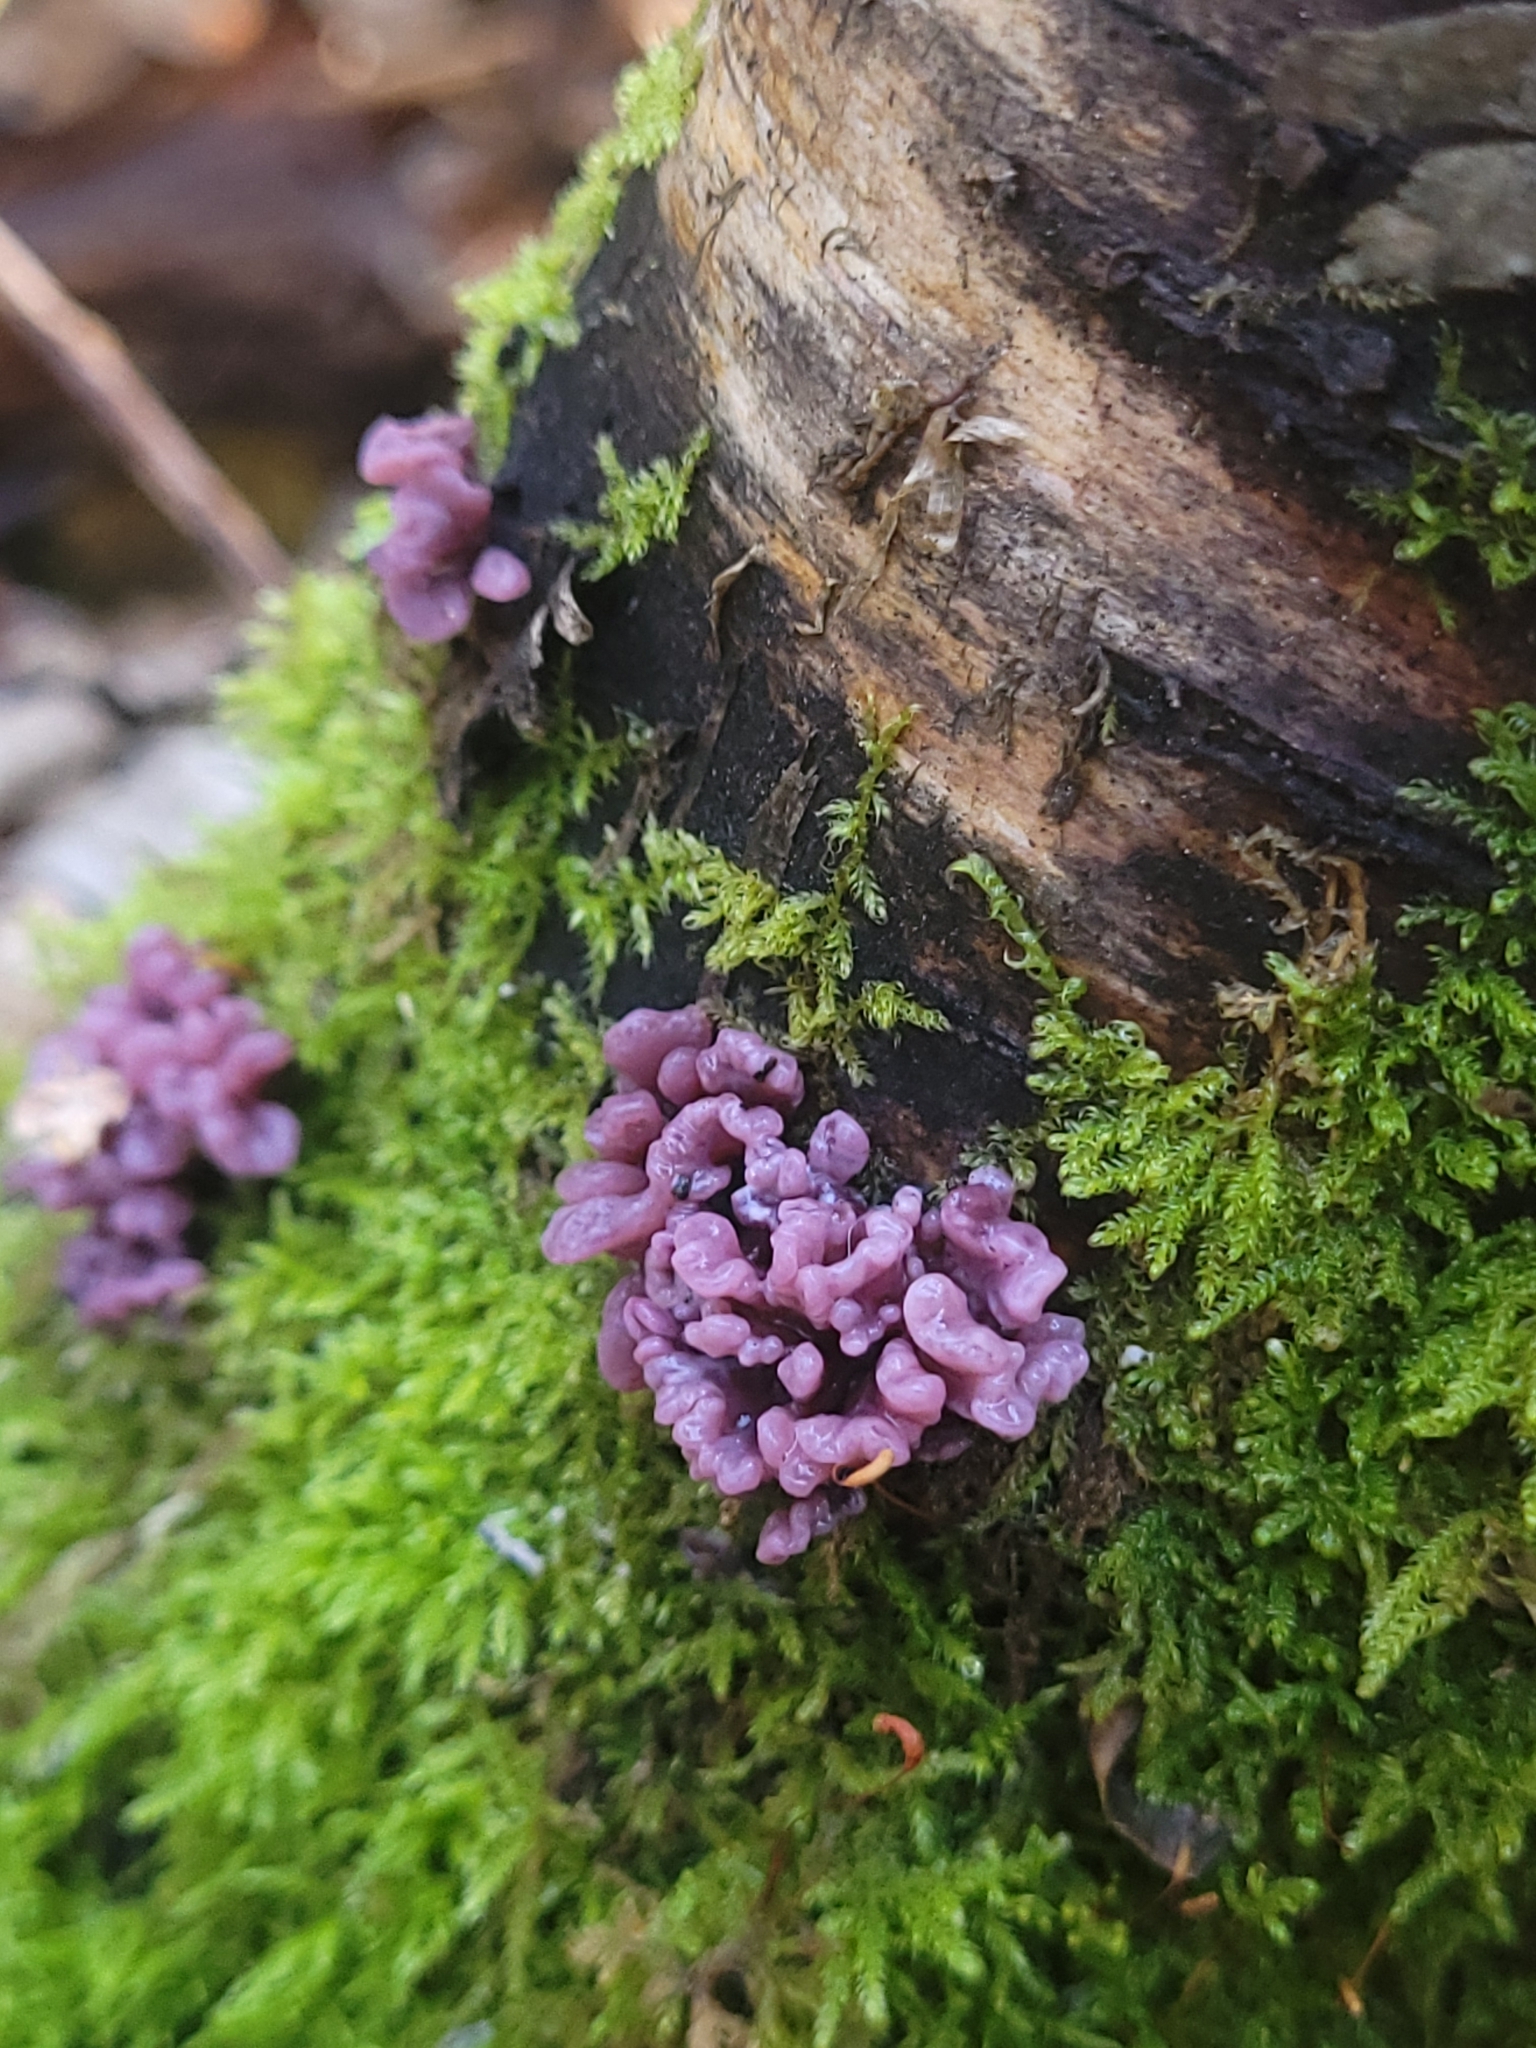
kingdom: Fungi
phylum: Ascomycota
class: Leotiomycetes
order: Helotiales
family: Gelatinodiscaceae
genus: Ascocoryne
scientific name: Ascocoryne sarcoides
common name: Purple jellydisc
